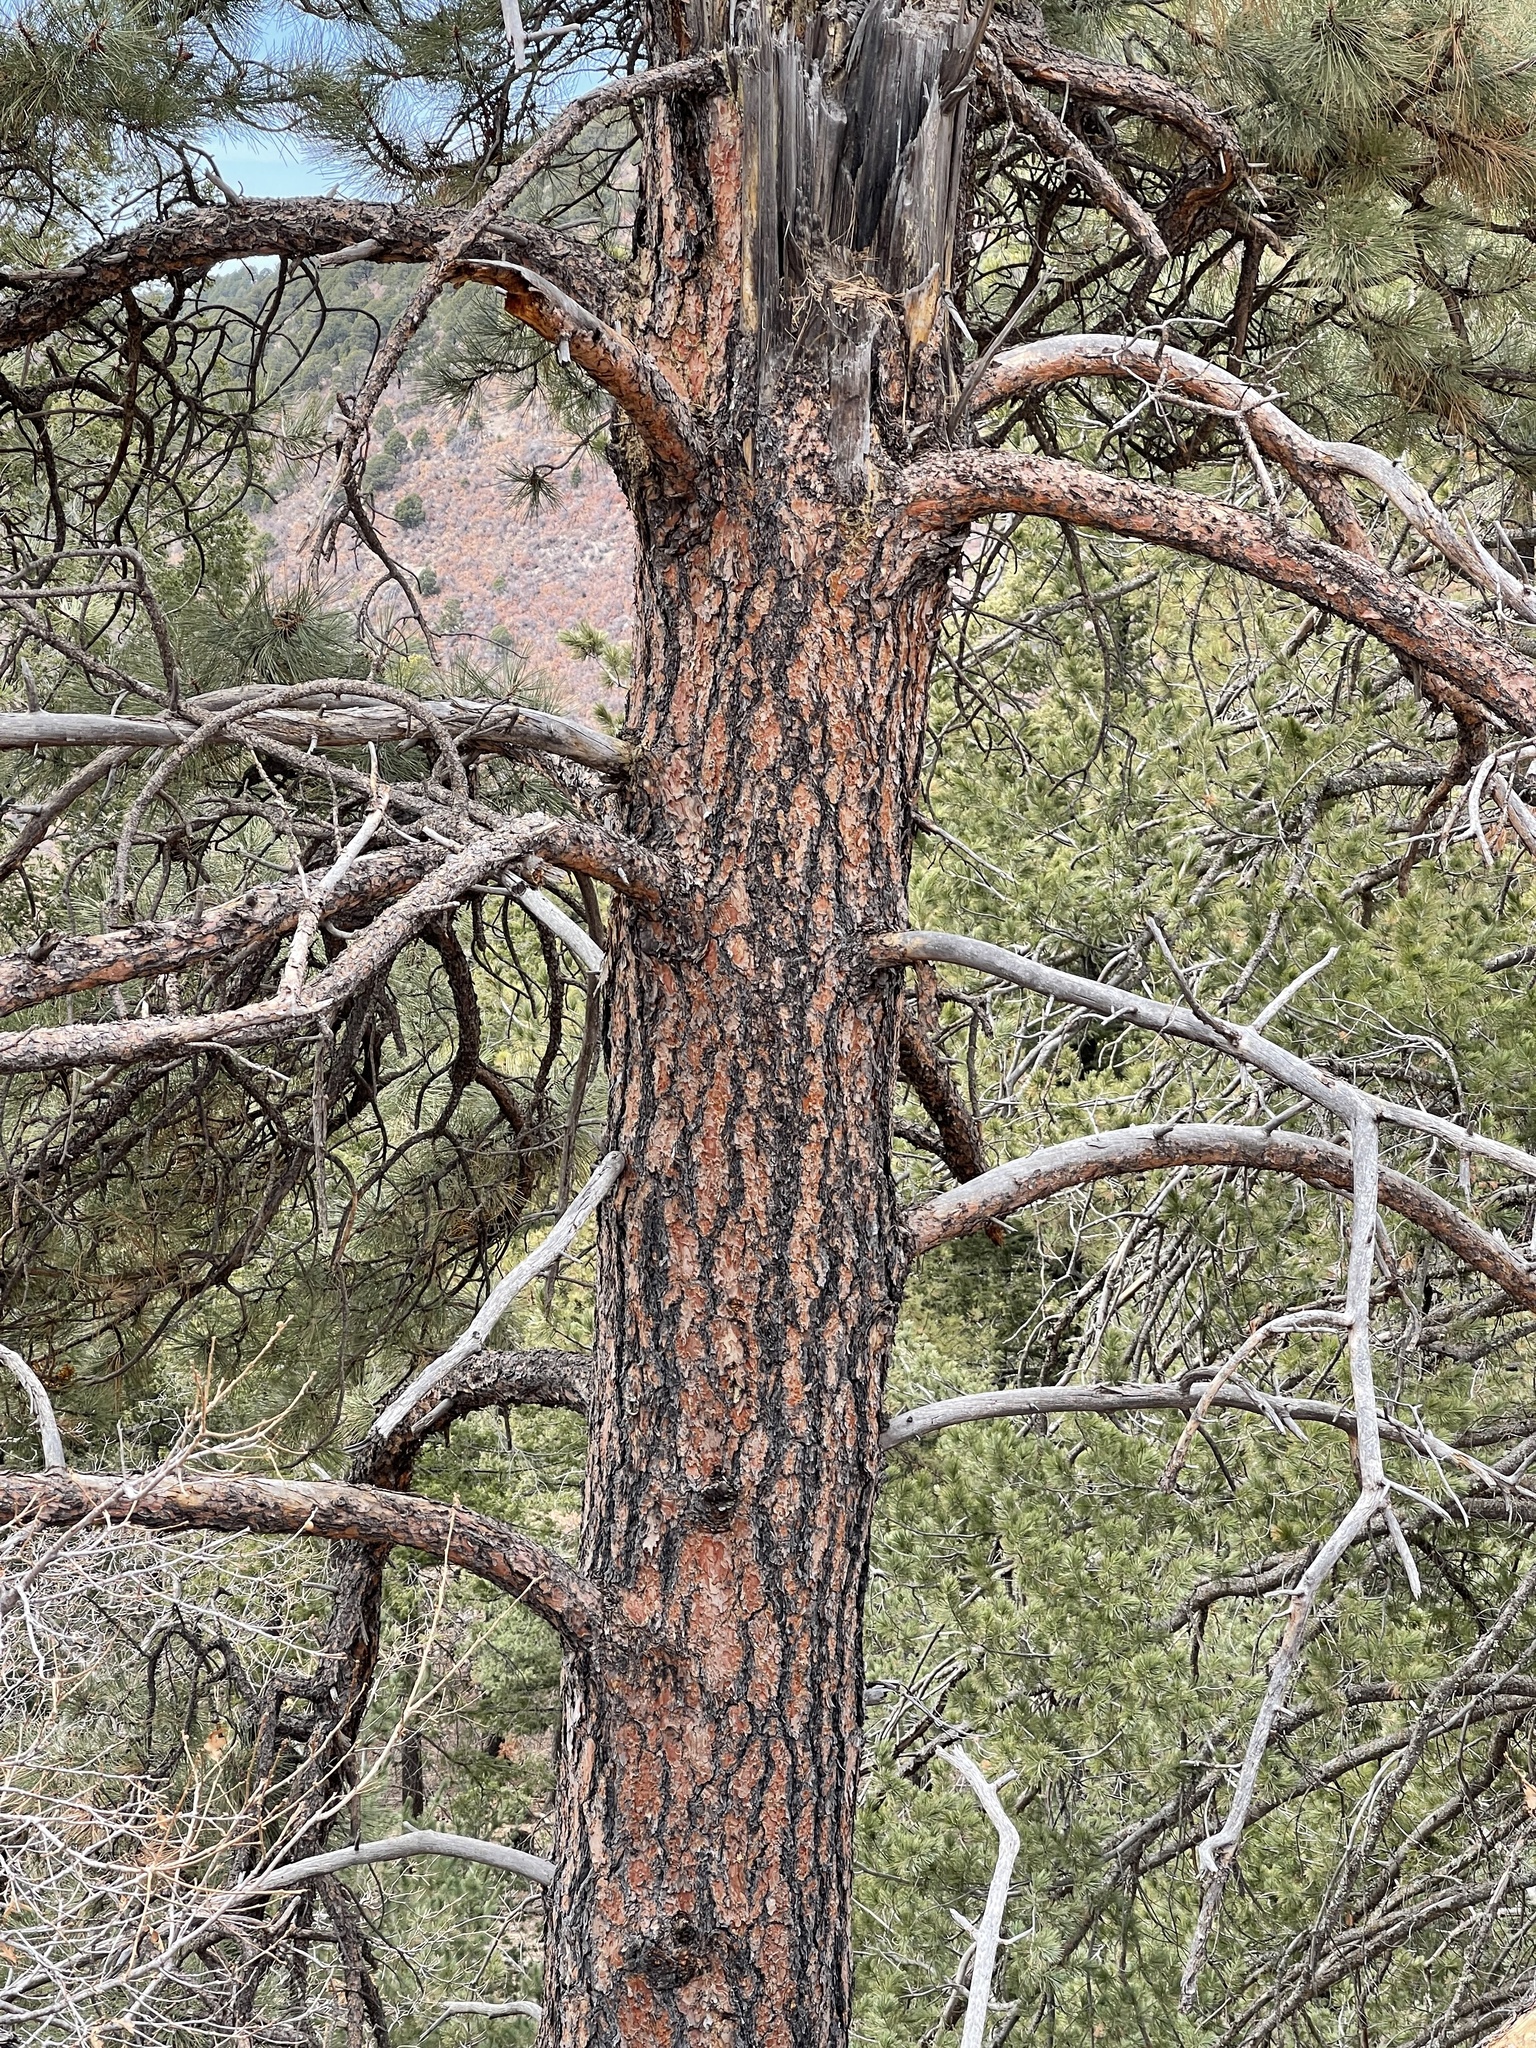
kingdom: Plantae
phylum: Tracheophyta
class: Pinopsida
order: Pinales
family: Pinaceae
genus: Pinus
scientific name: Pinus ponderosa
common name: Western yellow-pine
